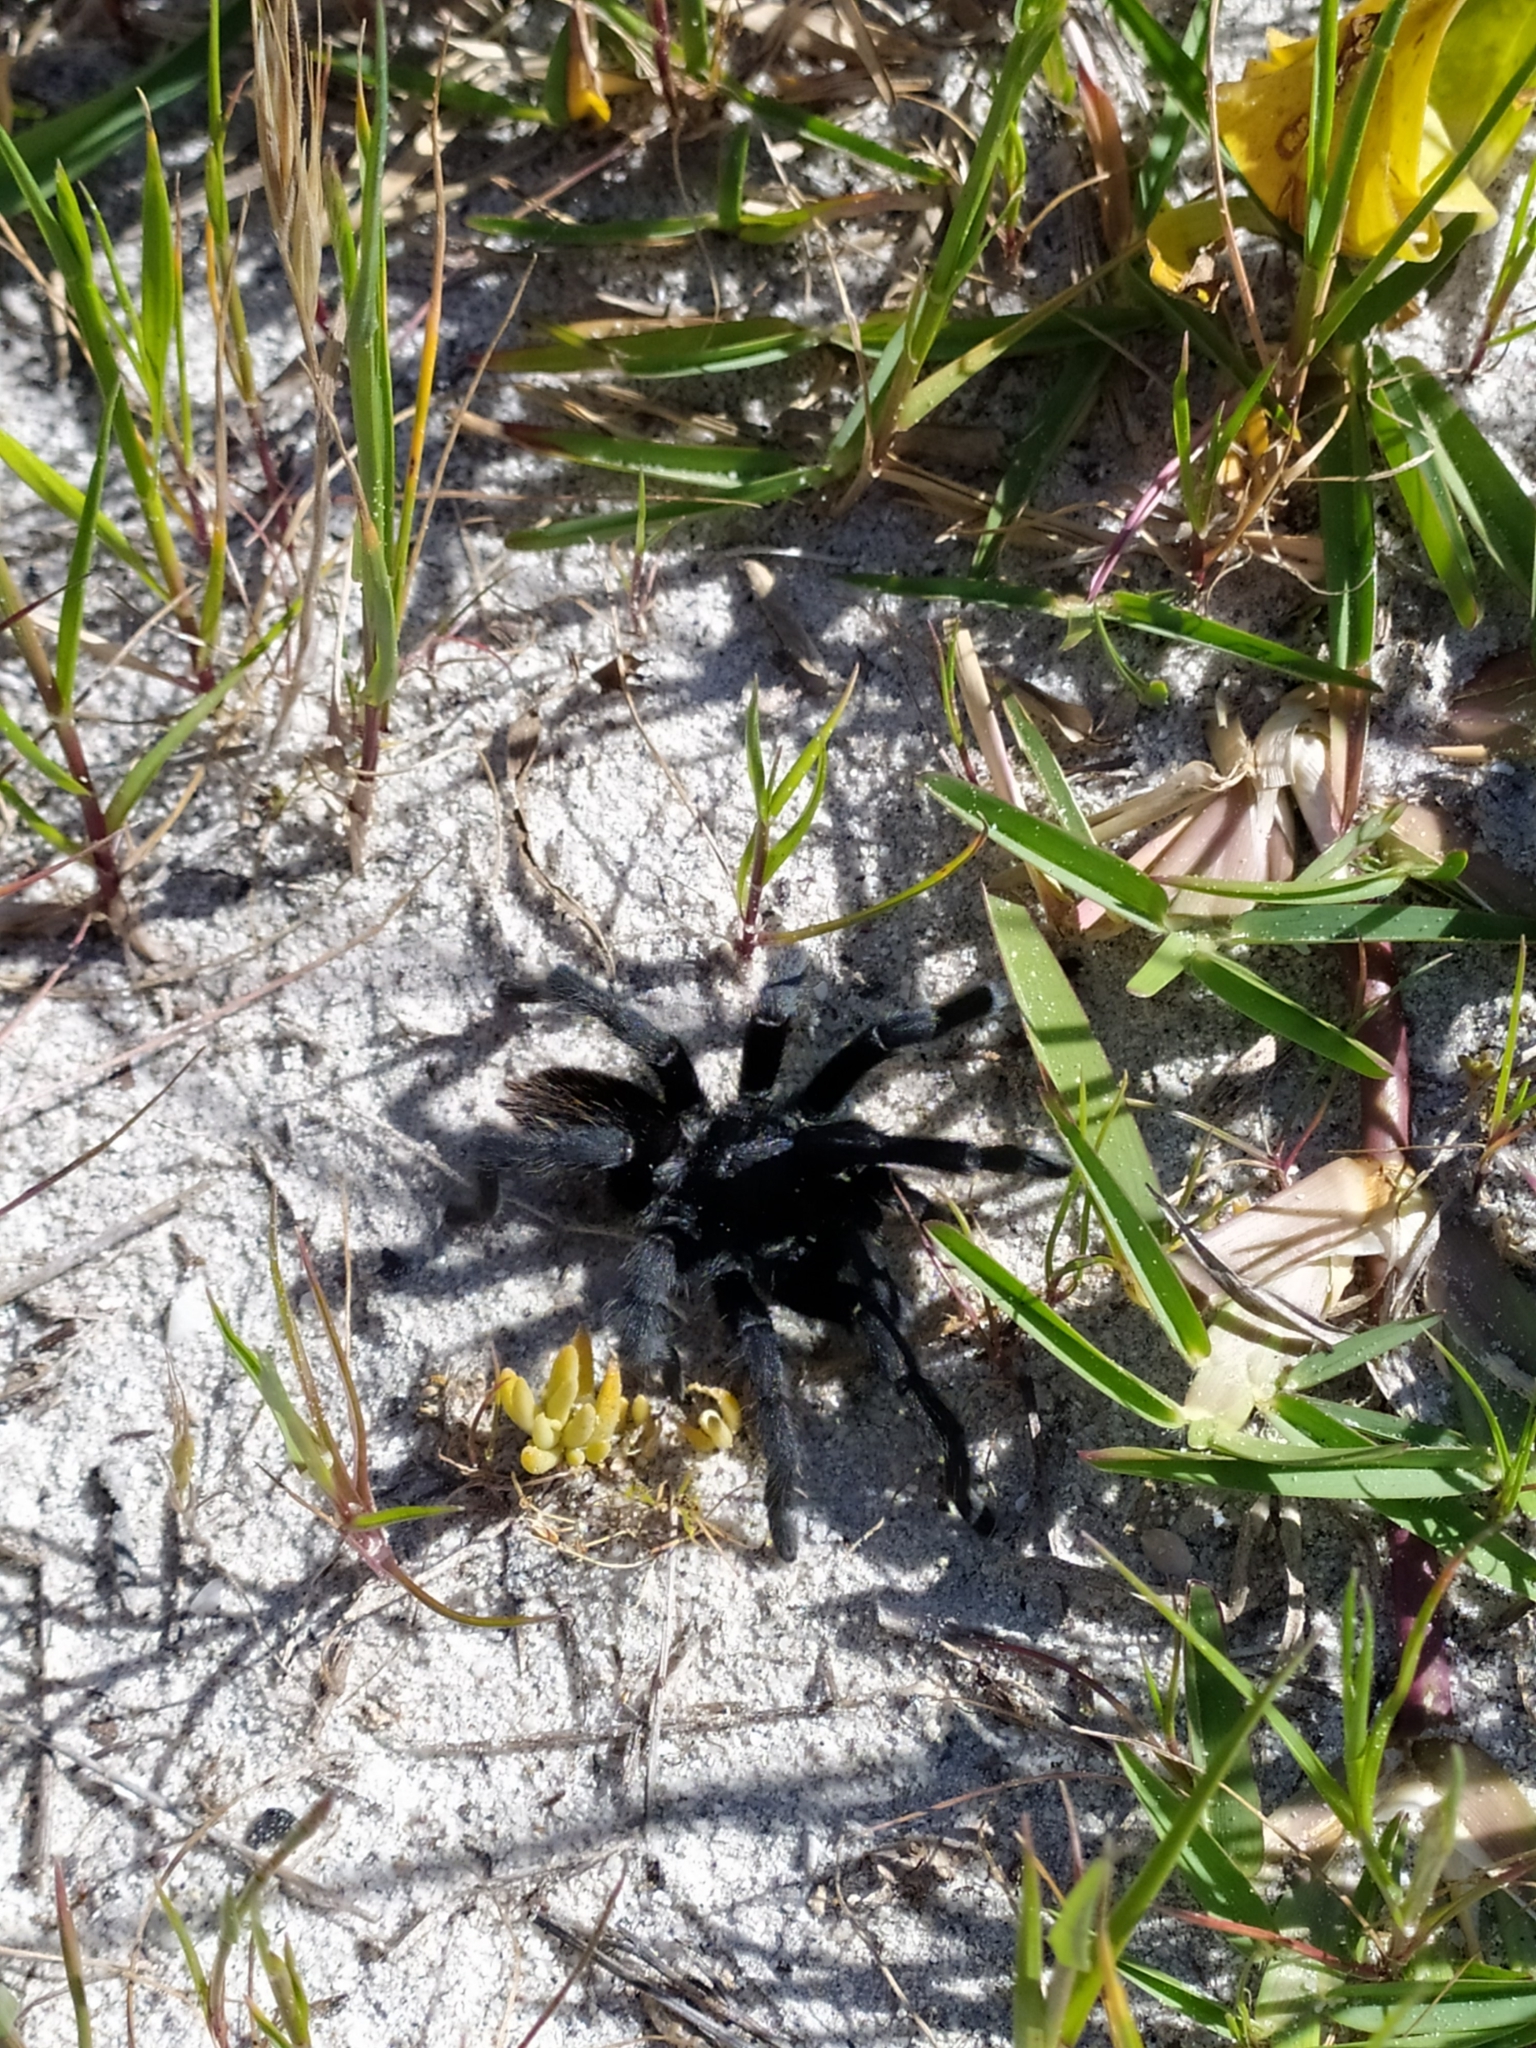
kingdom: Animalia
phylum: Arthropoda
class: Arachnida
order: Araneae
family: Theraphosidae
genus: Harpactira
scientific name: Harpactira atra
